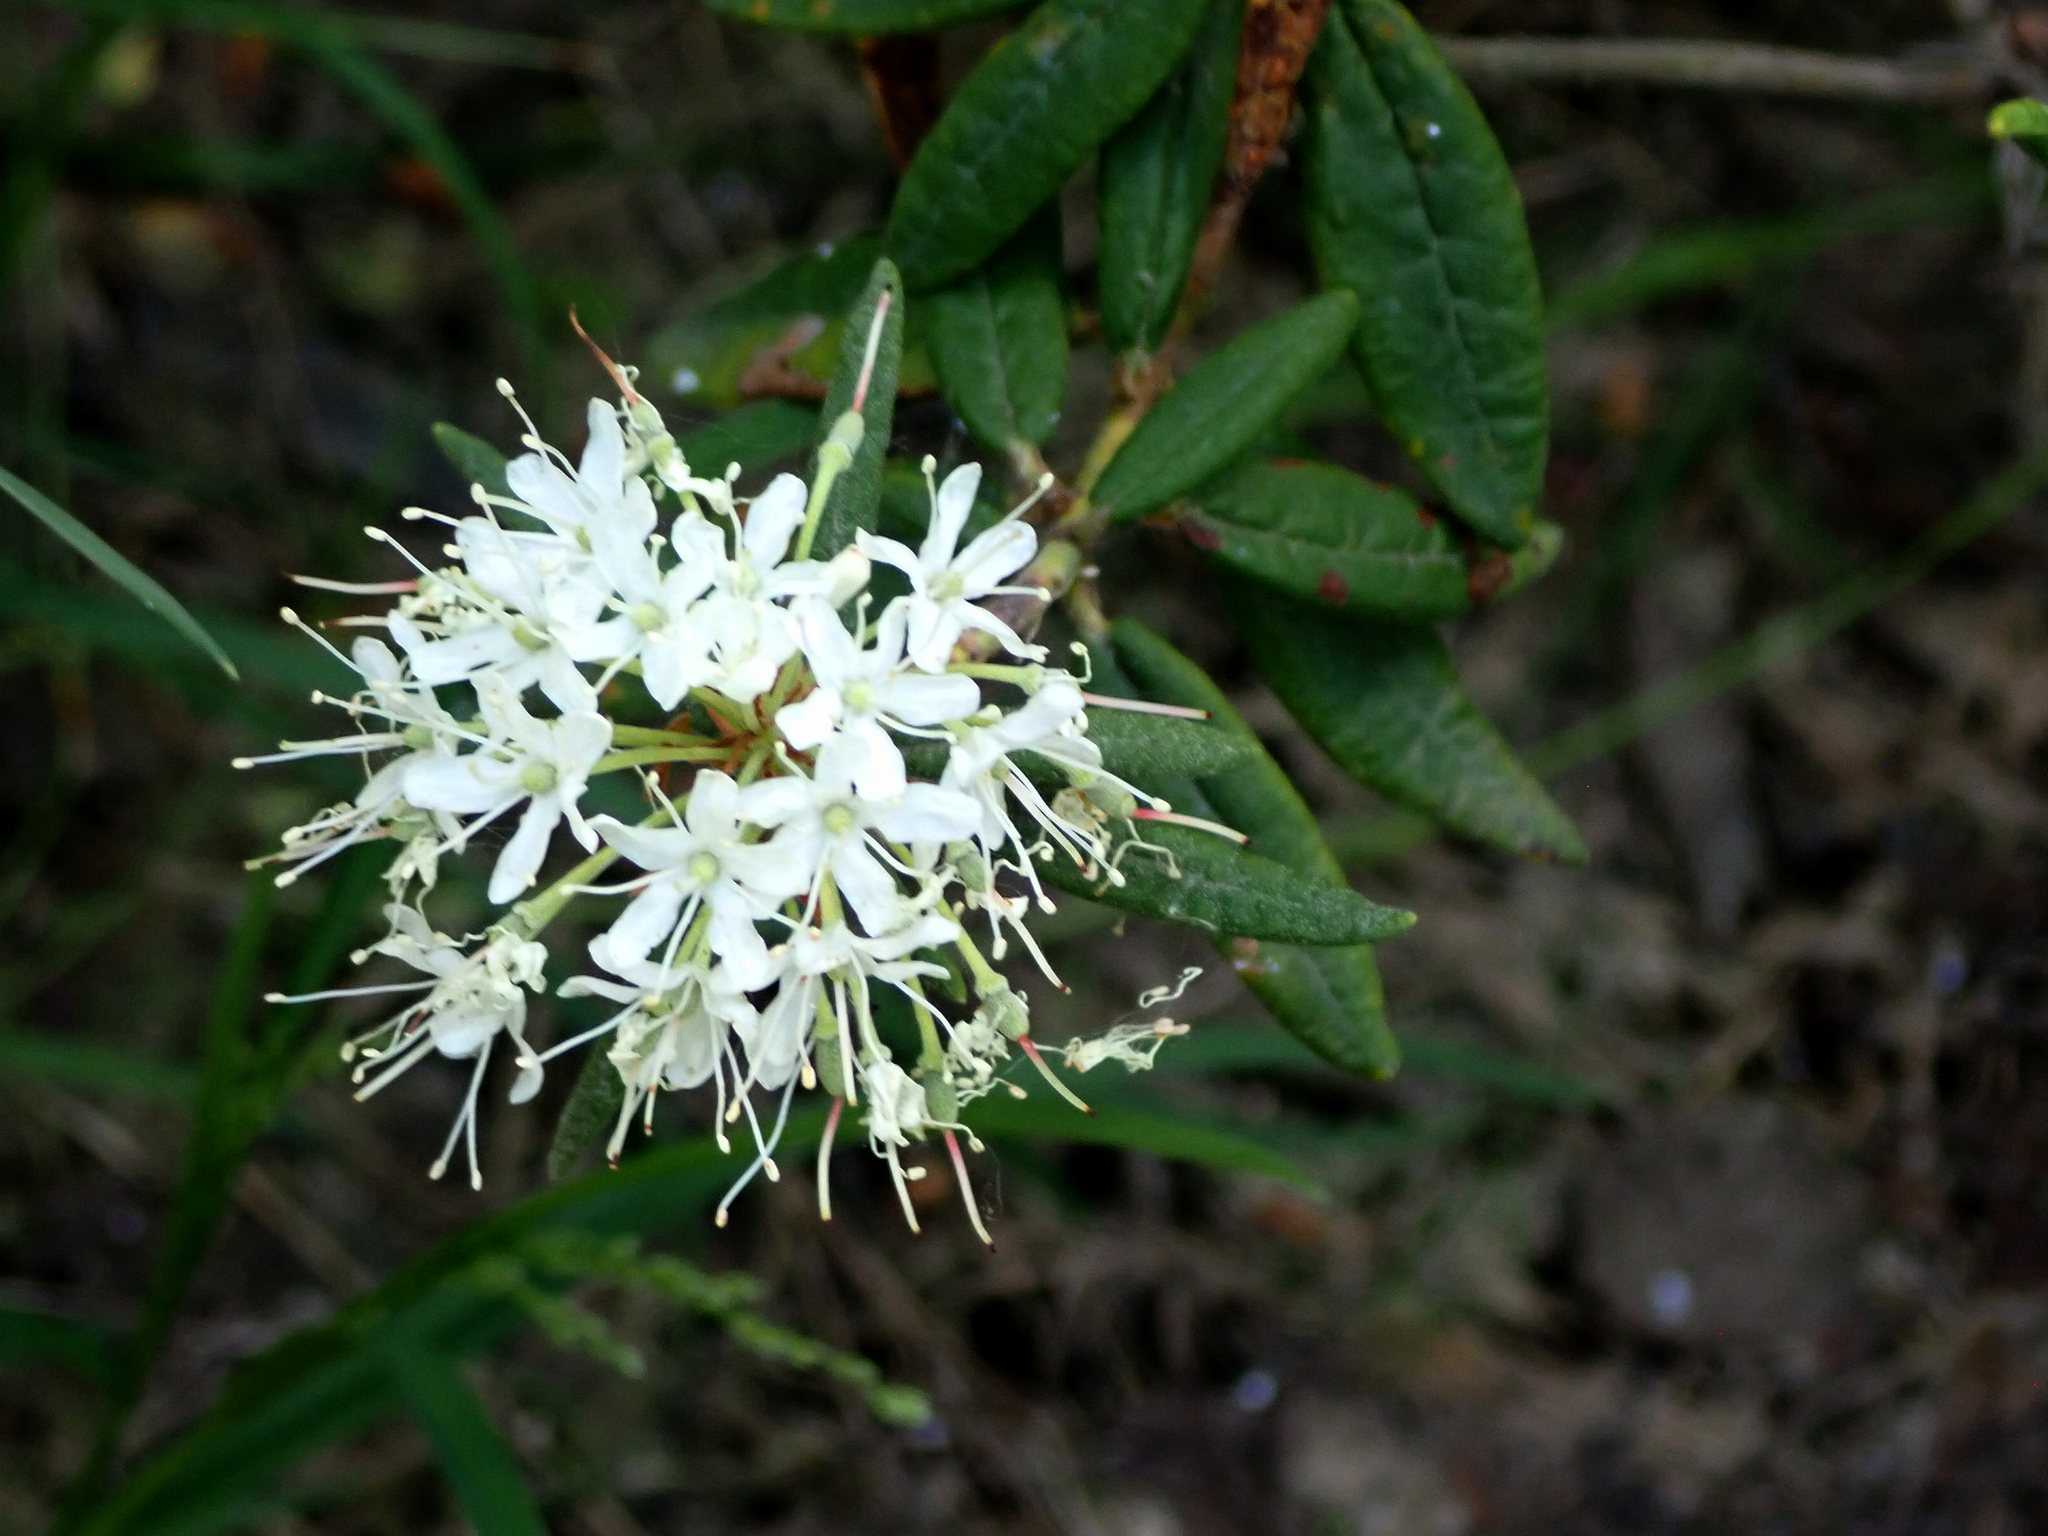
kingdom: Plantae
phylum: Tracheophyta
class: Magnoliopsida
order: Ericales
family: Ericaceae
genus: Rhododendron
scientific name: Rhododendron groenlandicum
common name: Bog labrador tea
